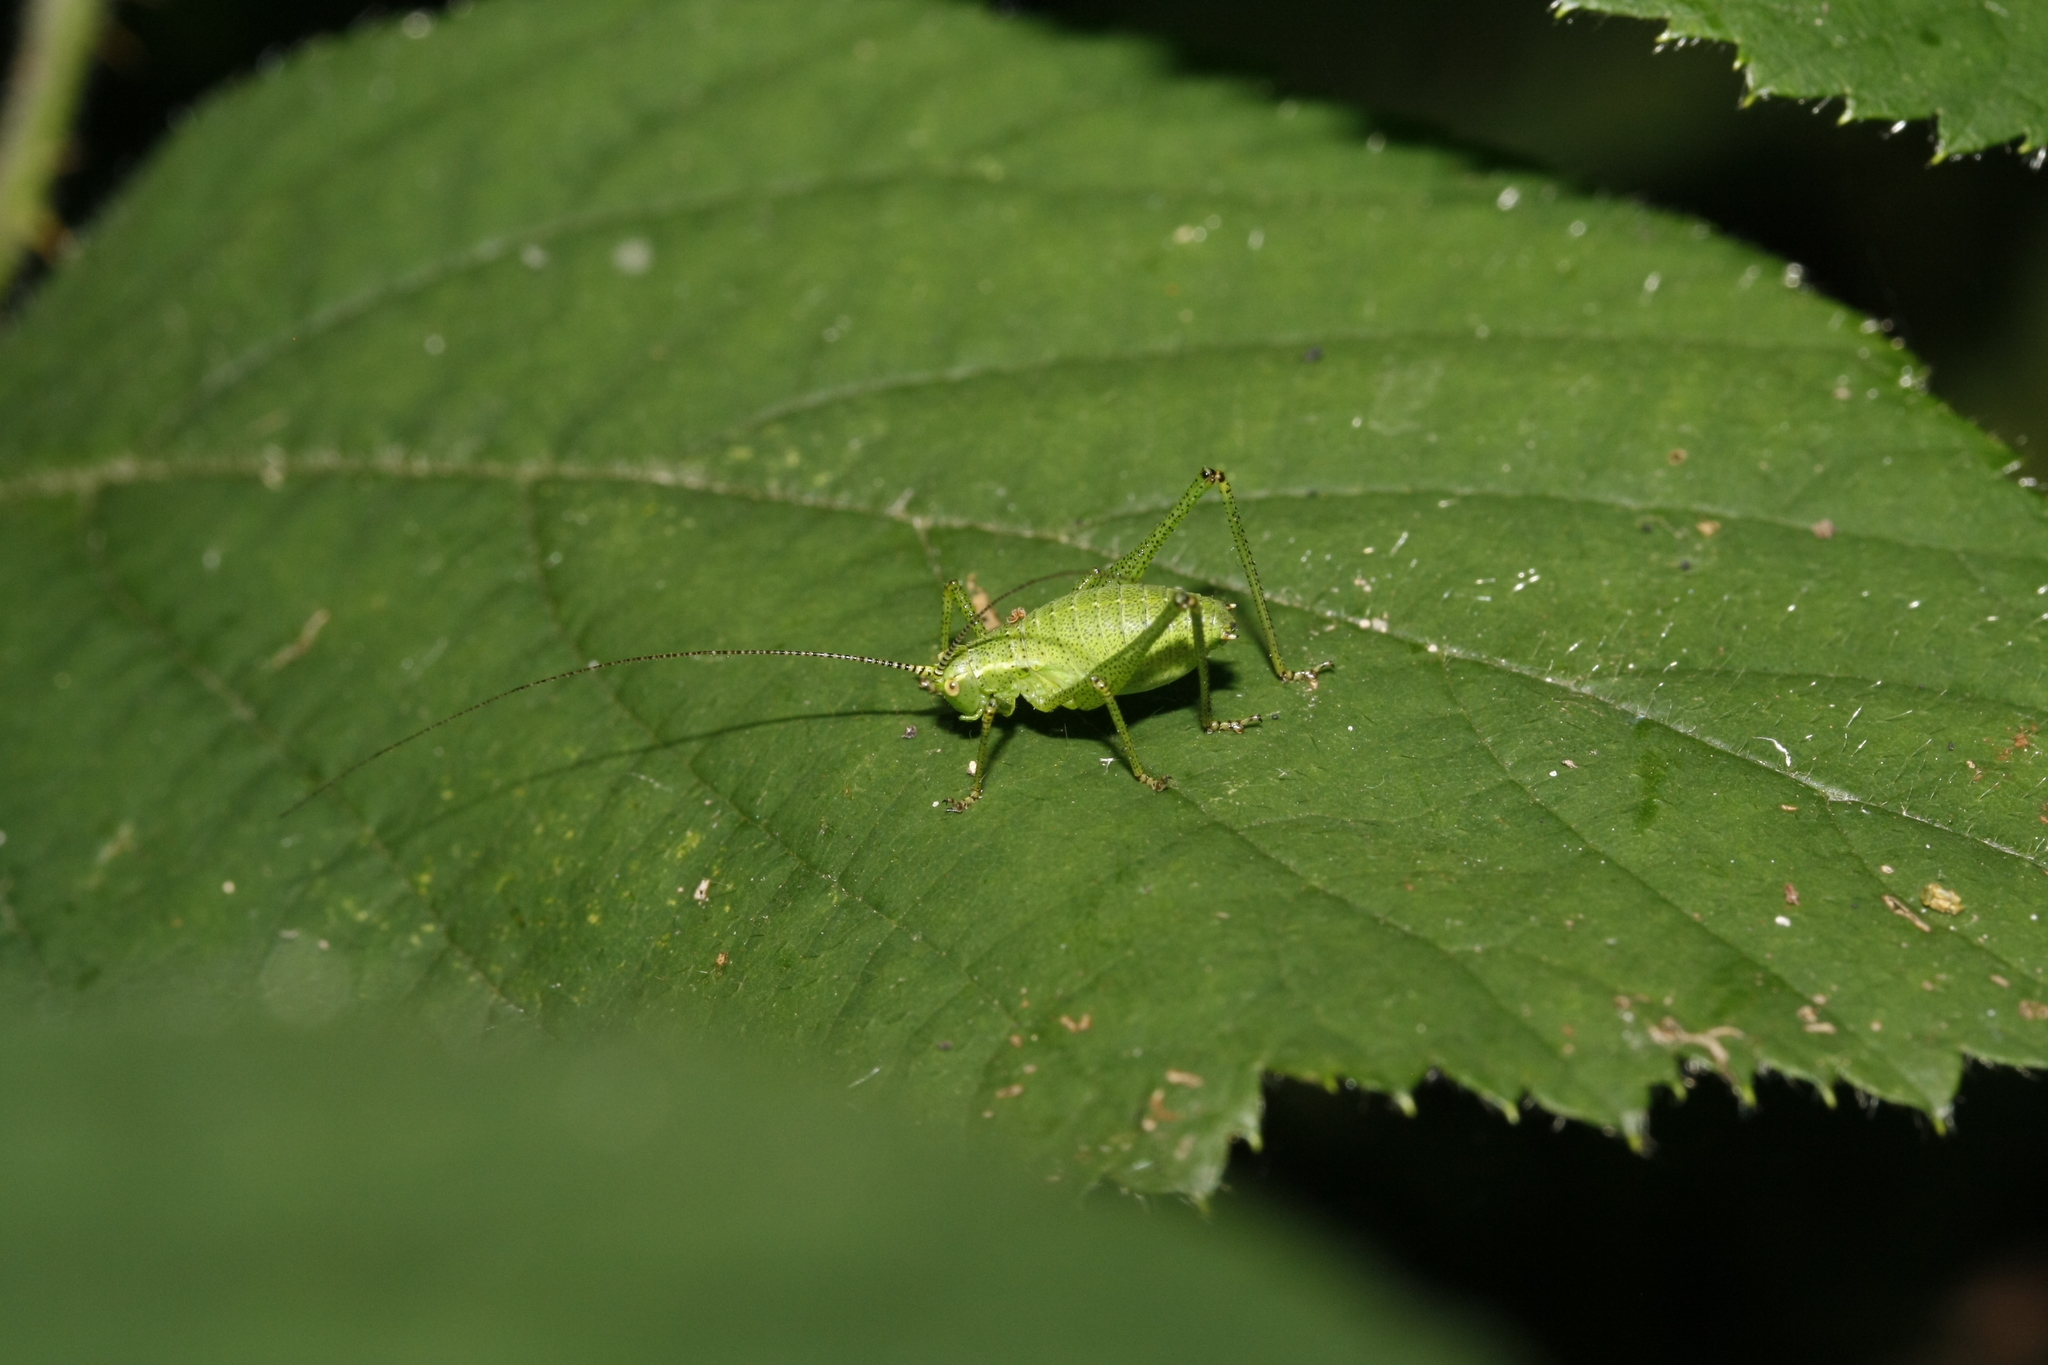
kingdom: Animalia
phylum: Arthropoda
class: Insecta
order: Orthoptera
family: Tettigoniidae
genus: Leptophyes
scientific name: Leptophyes punctatissima
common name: Speckled bush-cricket
